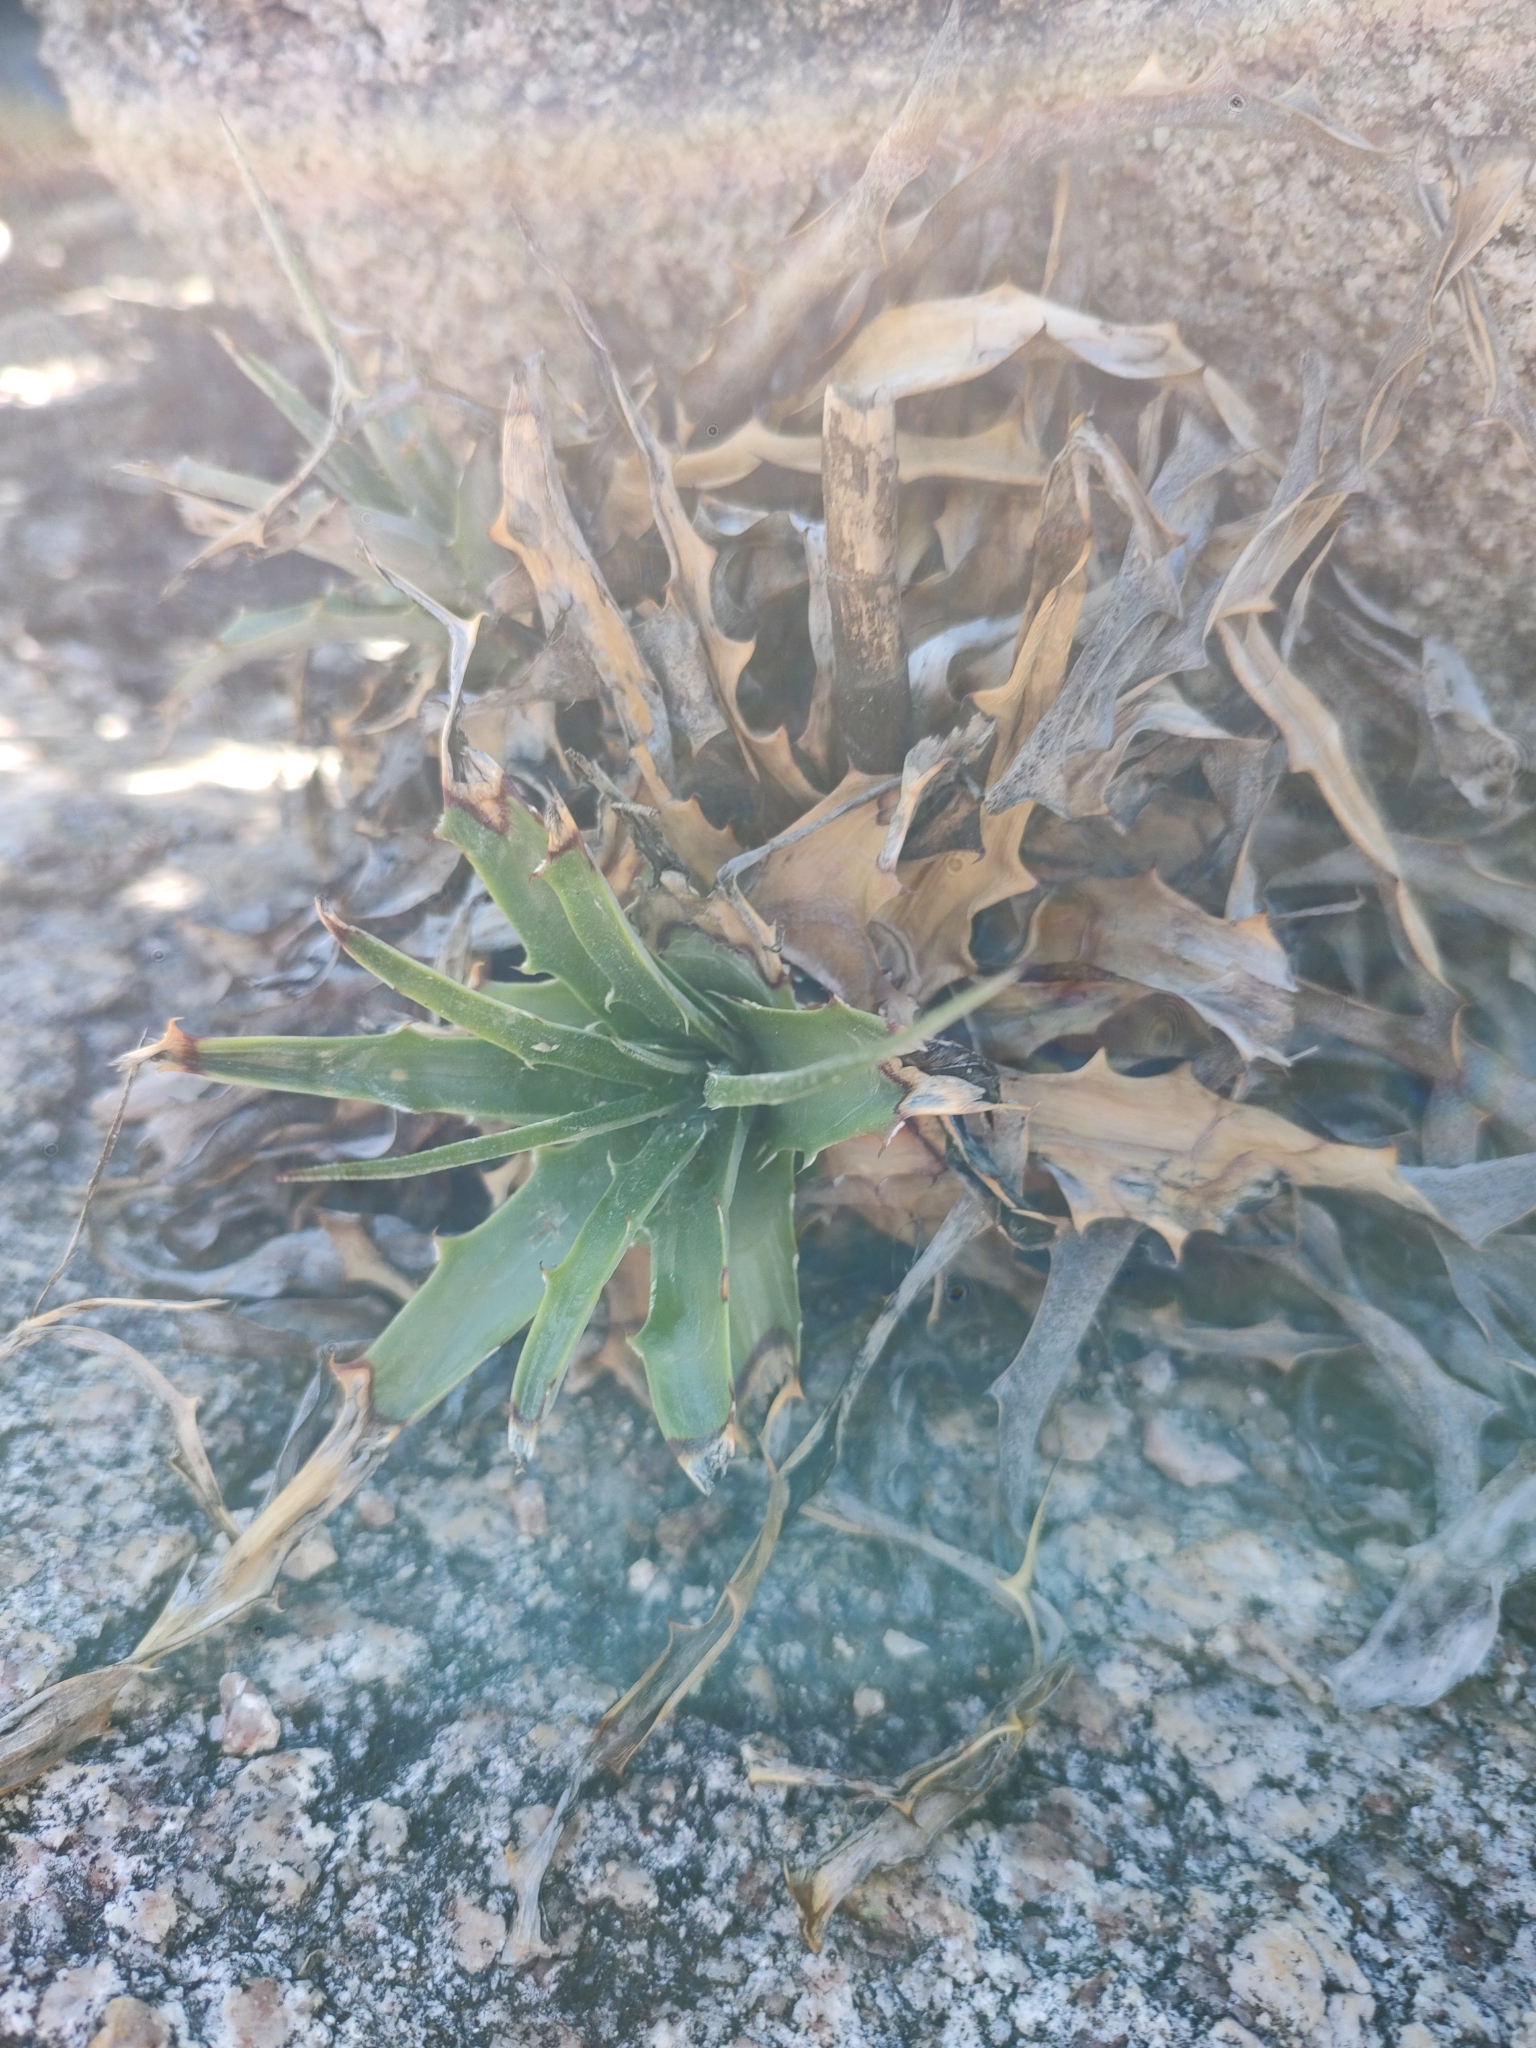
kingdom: Plantae
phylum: Tracheophyta
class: Liliopsida
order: Poales
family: Bromeliaceae
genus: Hechtia
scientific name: Hechtia montana
